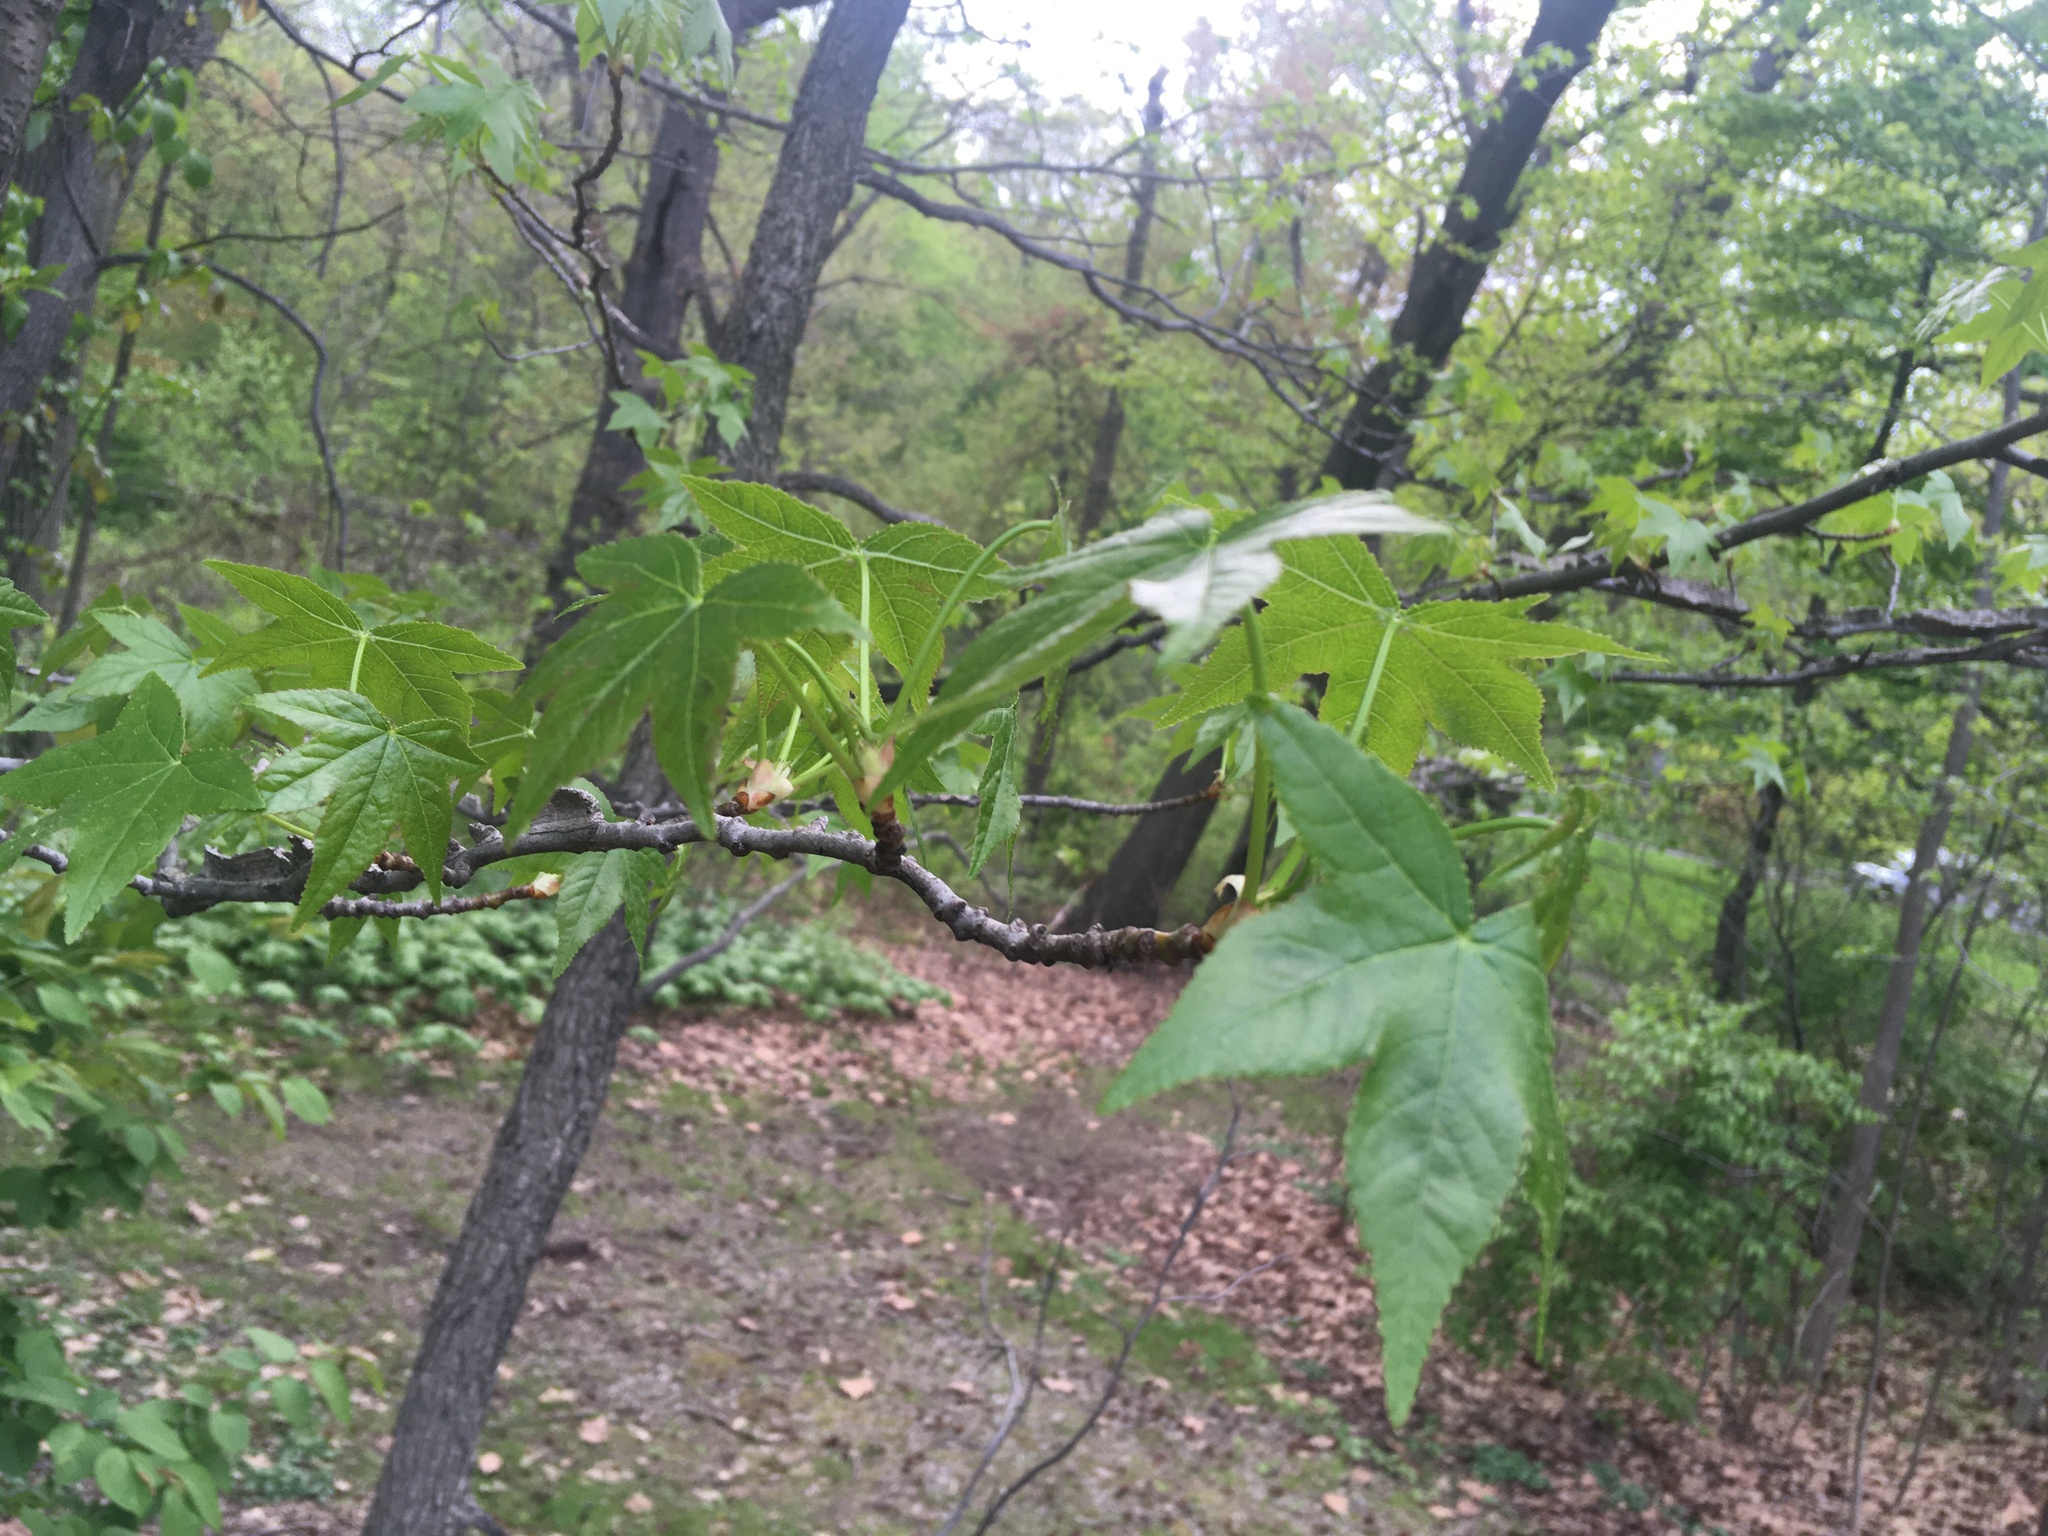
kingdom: Plantae
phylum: Tracheophyta
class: Magnoliopsida
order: Saxifragales
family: Altingiaceae
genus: Liquidambar
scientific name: Liquidambar styraciflua
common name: Sweet gum
